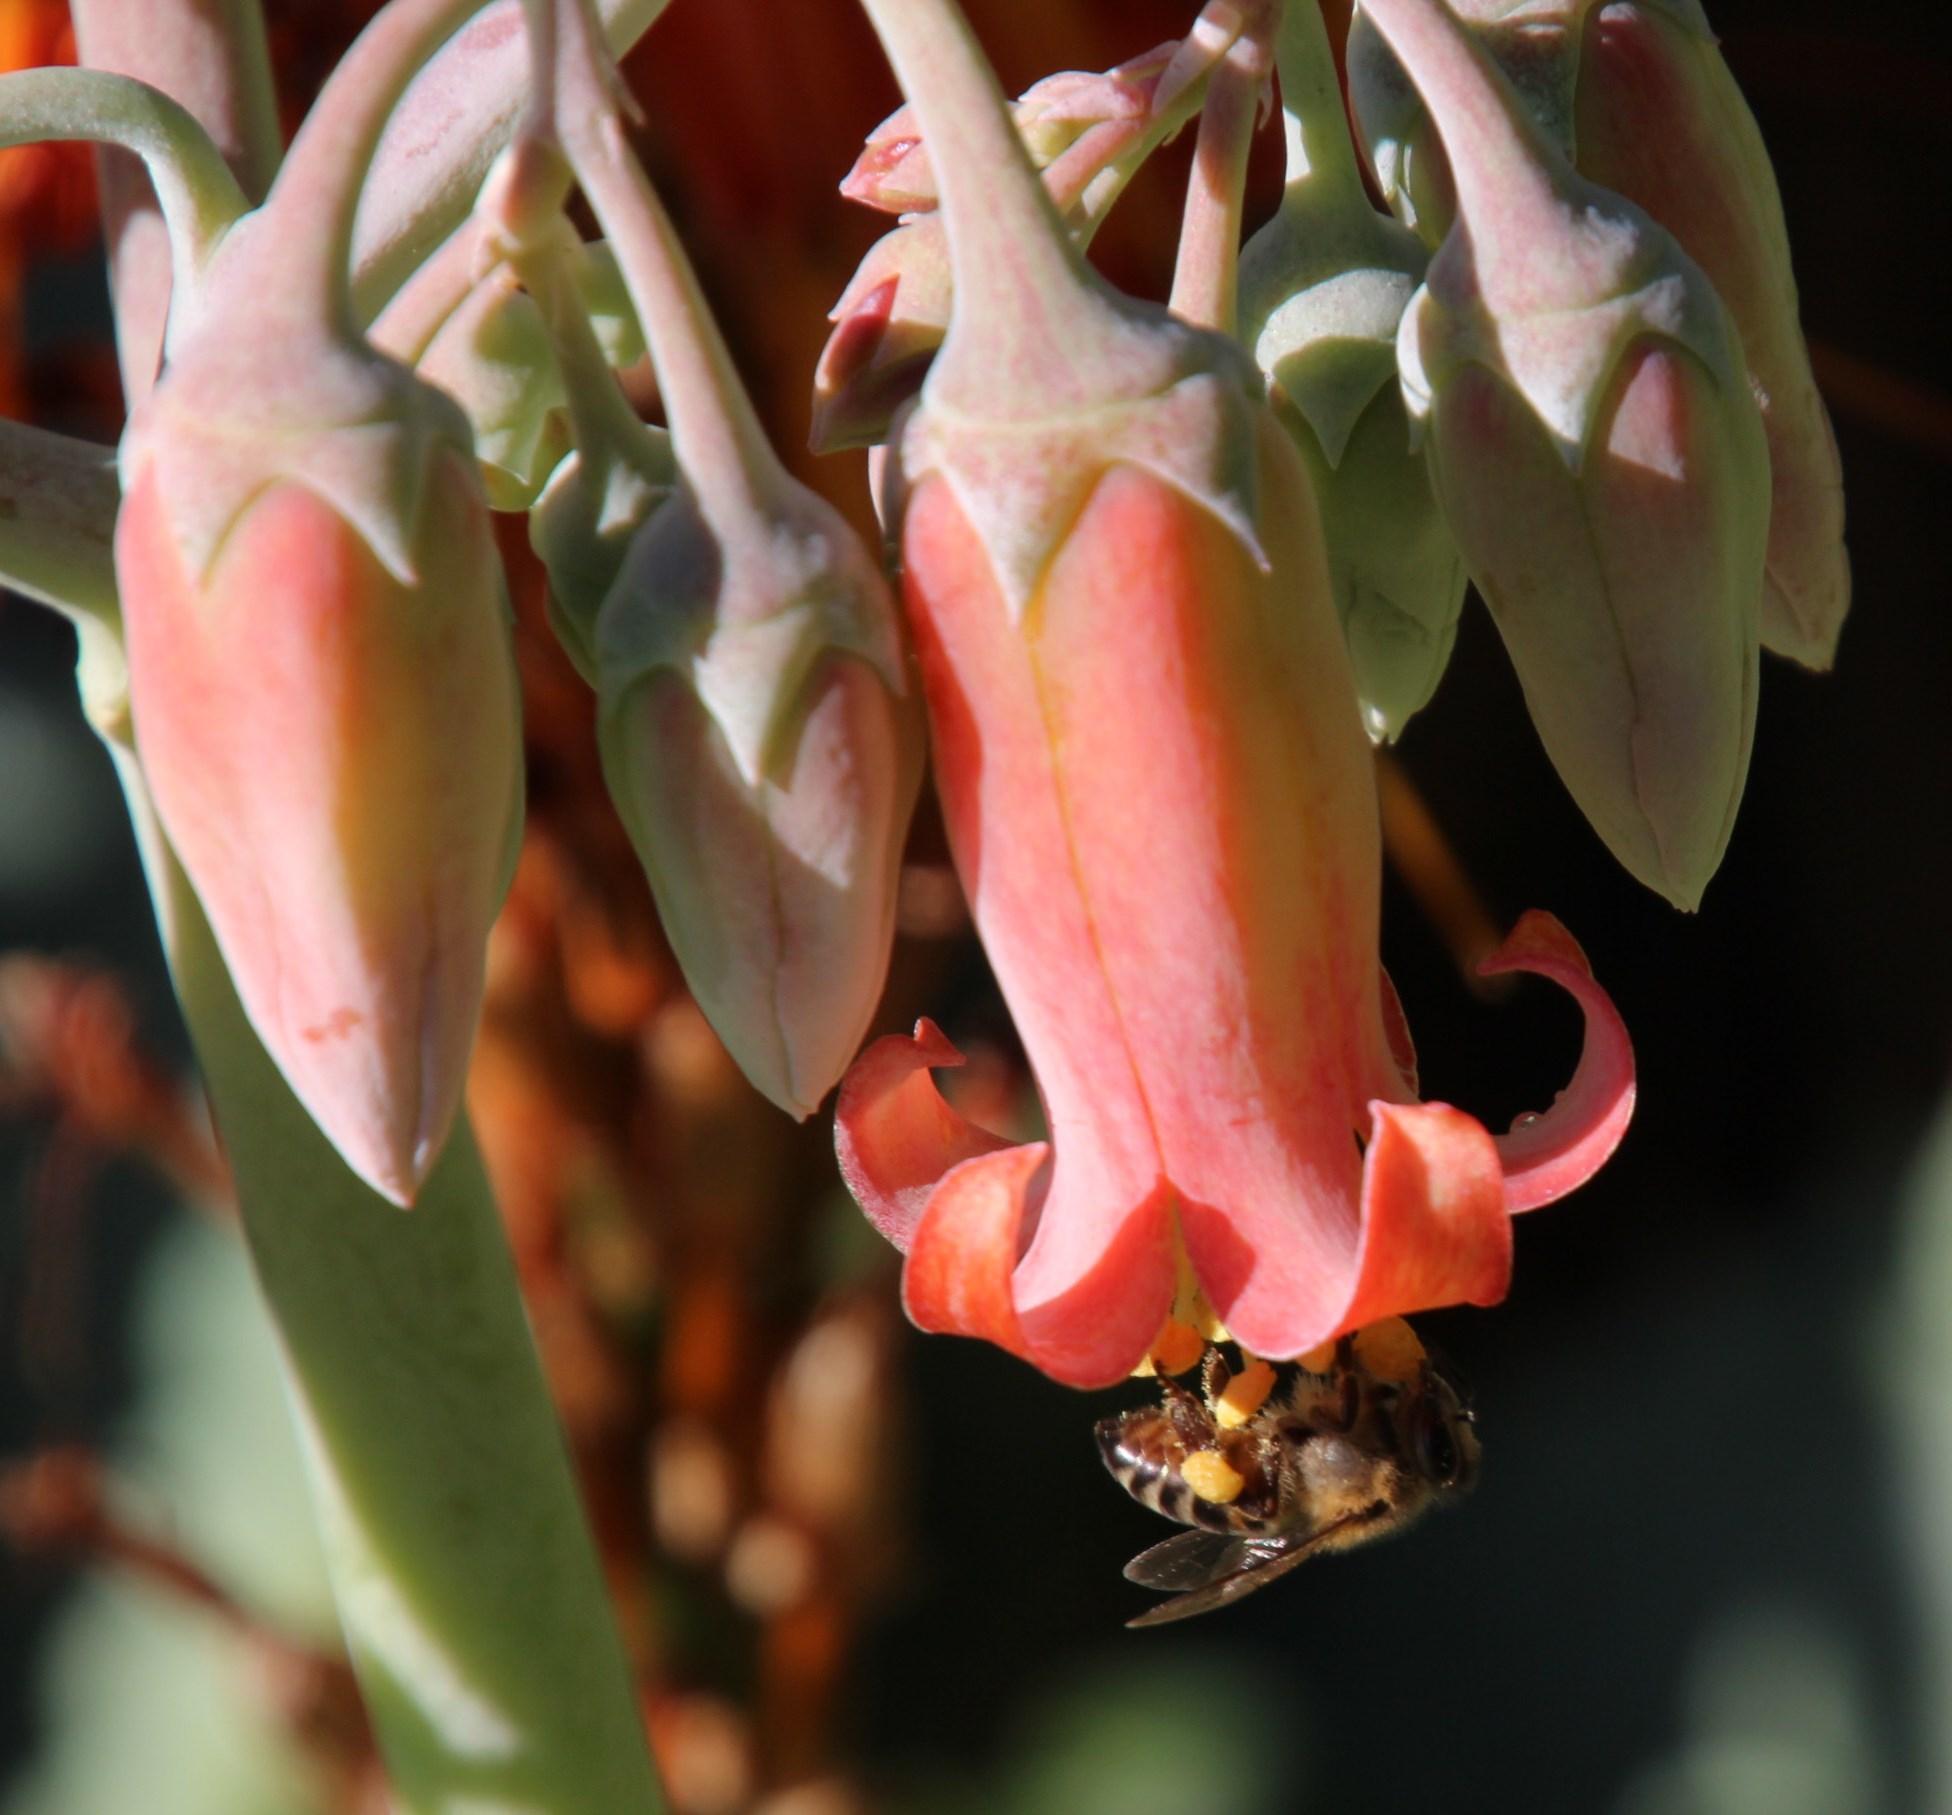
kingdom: Animalia
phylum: Arthropoda
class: Insecta
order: Hymenoptera
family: Apidae
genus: Apis
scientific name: Apis mellifera
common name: Honey bee
